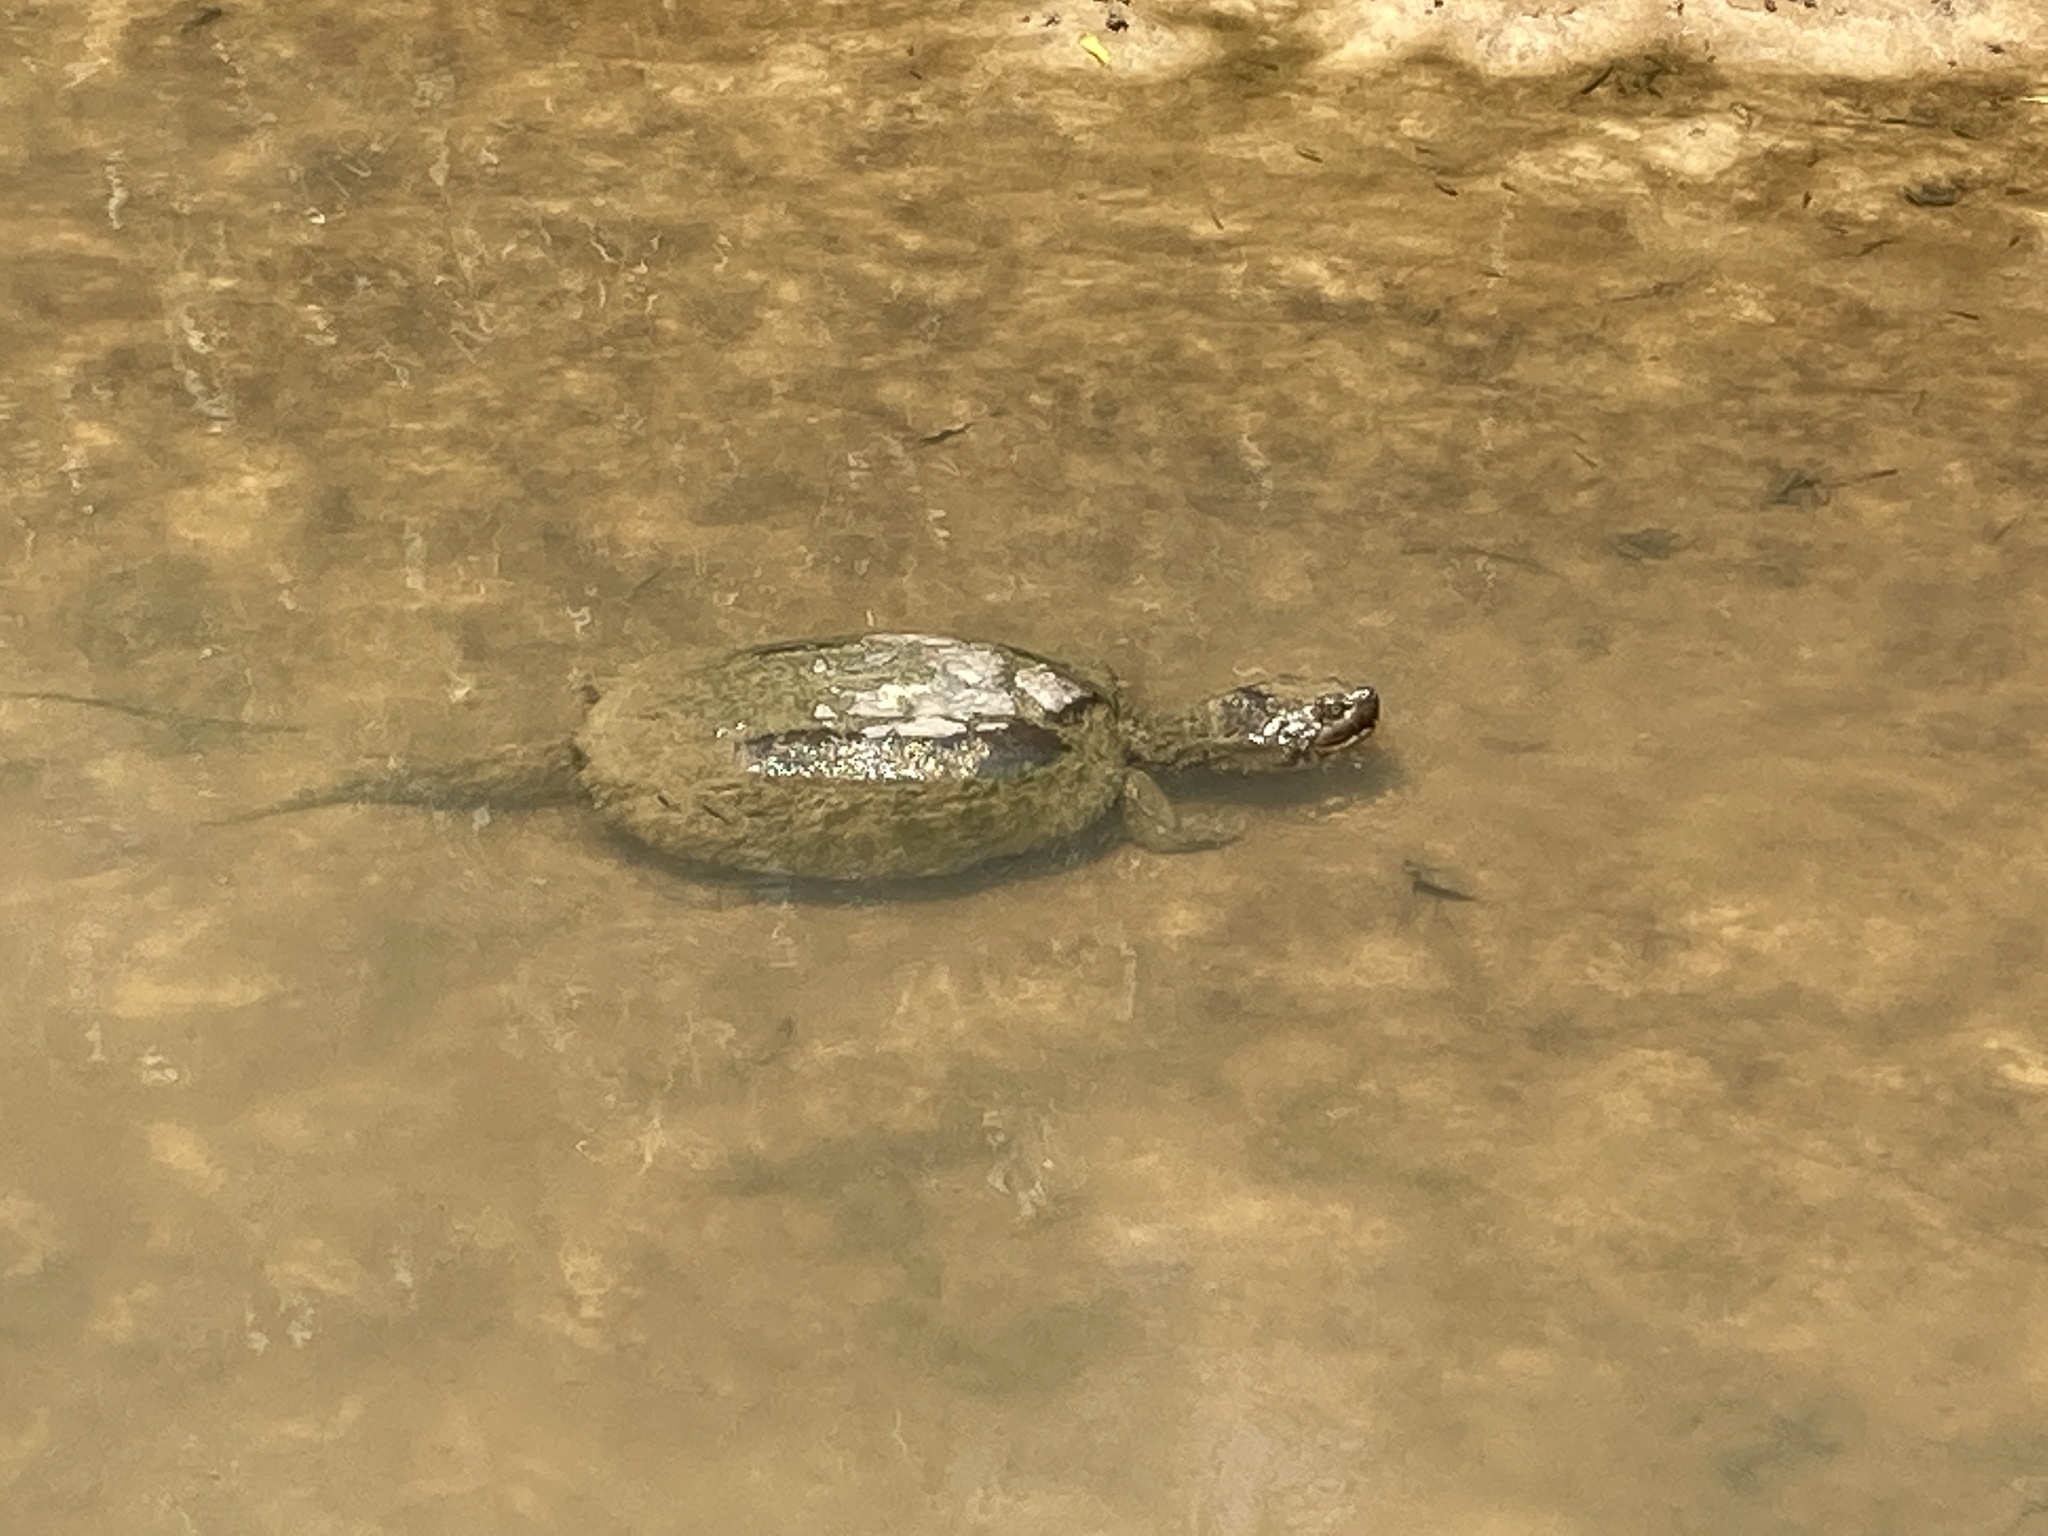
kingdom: Animalia
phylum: Chordata
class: Testudines
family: Chelydridae
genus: Chelydra
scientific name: Chelydra serpentina
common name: Common snapping turtle
